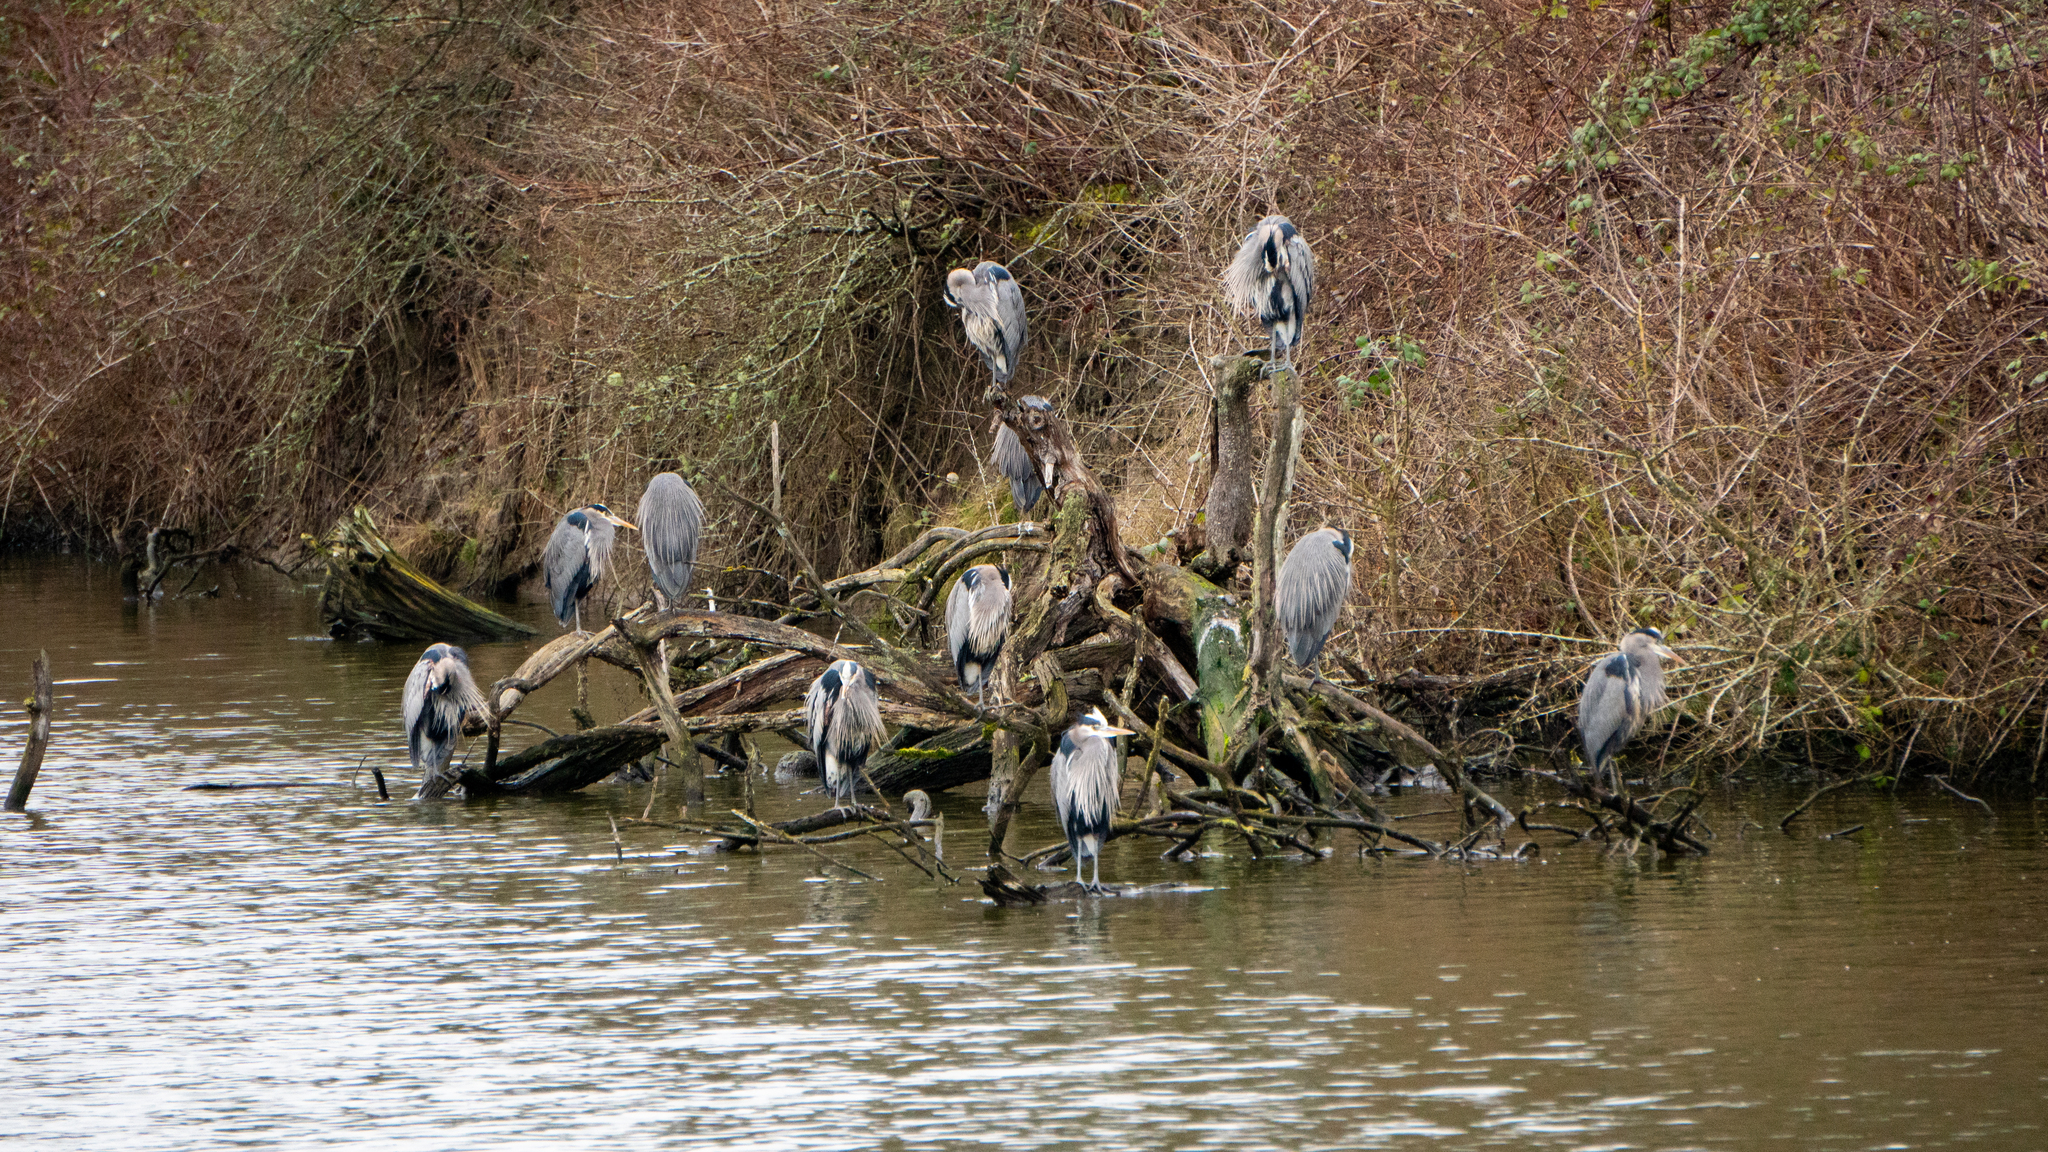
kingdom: Animalia
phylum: Chordata
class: Aves
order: Pelecaniformes
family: Ardeidae
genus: Ardea
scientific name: Ardea herodias
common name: Great blue heron
